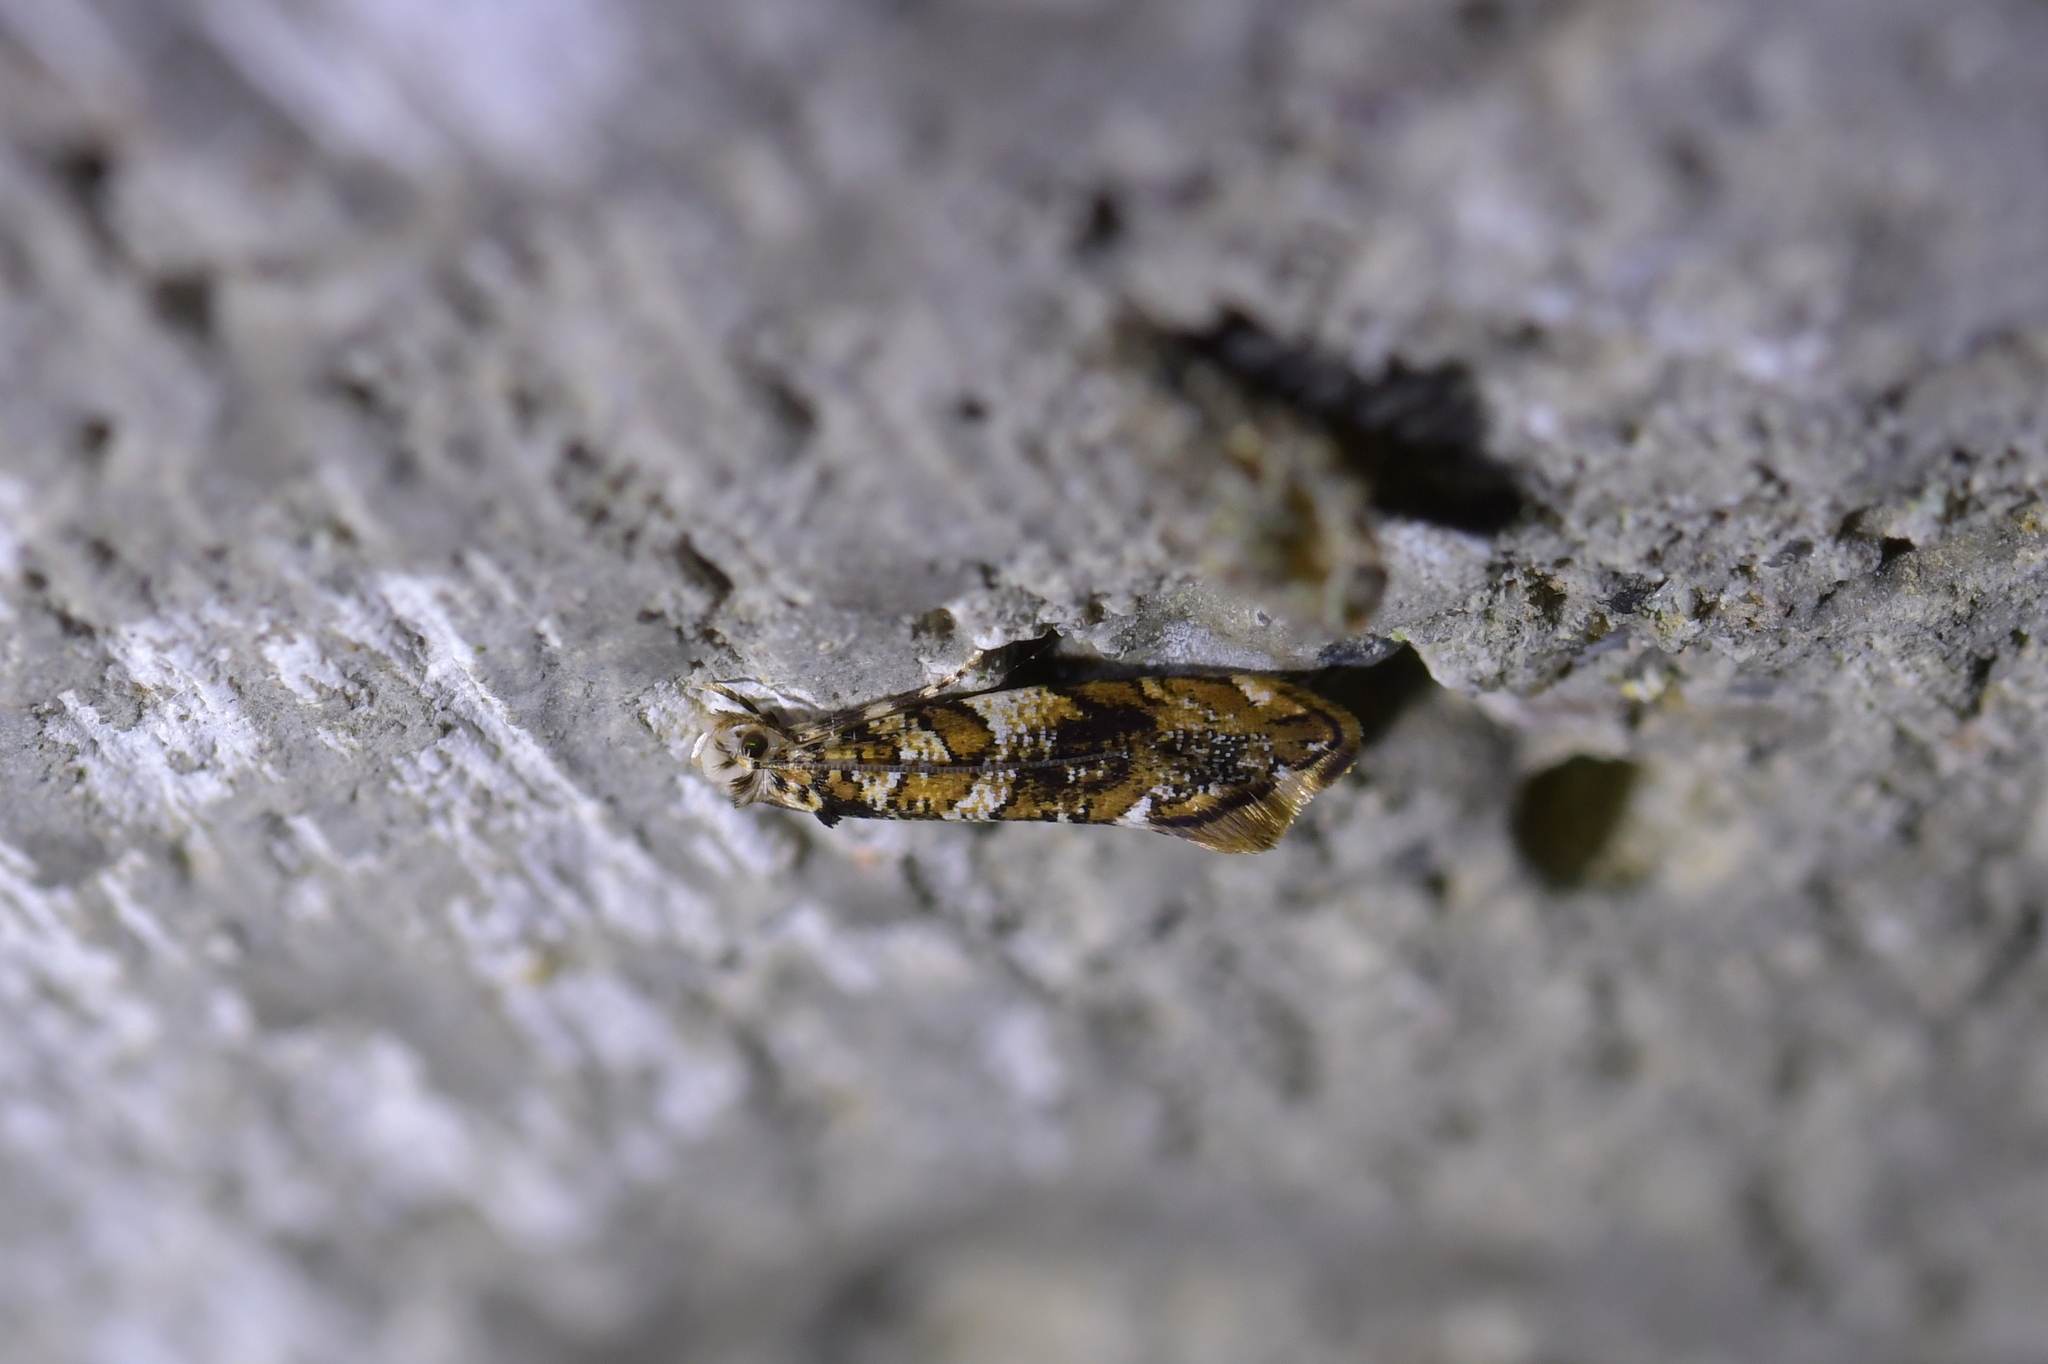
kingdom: Animalia
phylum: Arthropoda
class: Insecta
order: Lepidoptera
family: Tineidae
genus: Eschatotypa
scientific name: Eschatotypa derogatella
